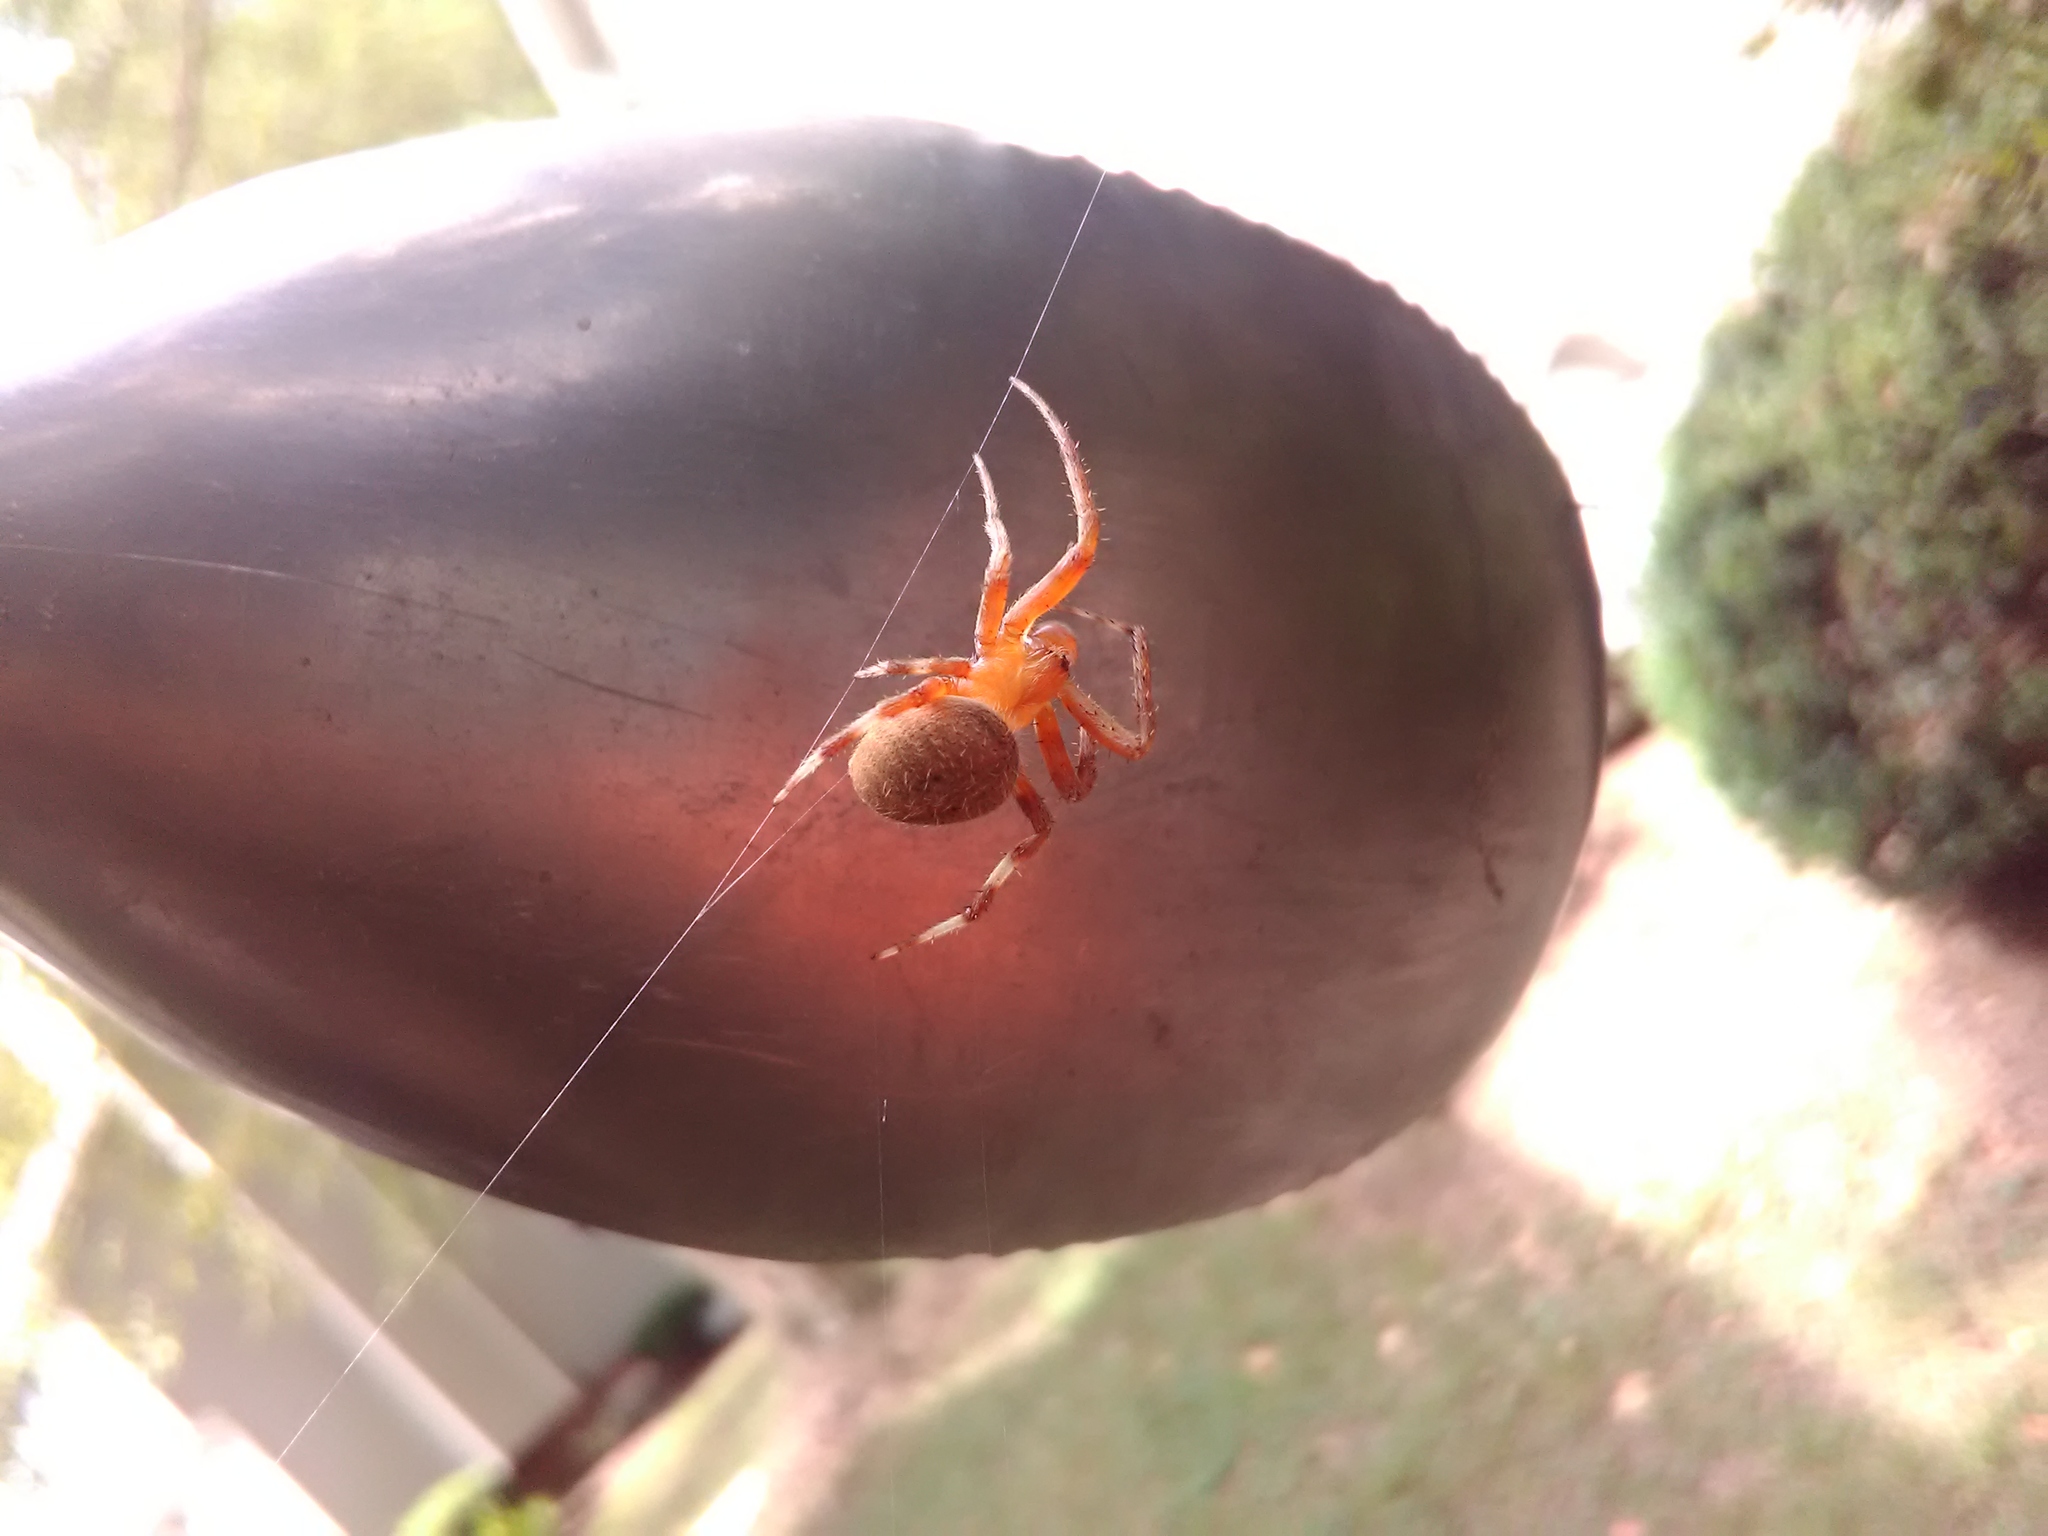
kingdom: Animalia
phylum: Arthropoda
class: Arachnida
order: Araneae
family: Araneidae
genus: Neoscona
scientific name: Neoscona crucifera
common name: Spotted orbweaver
